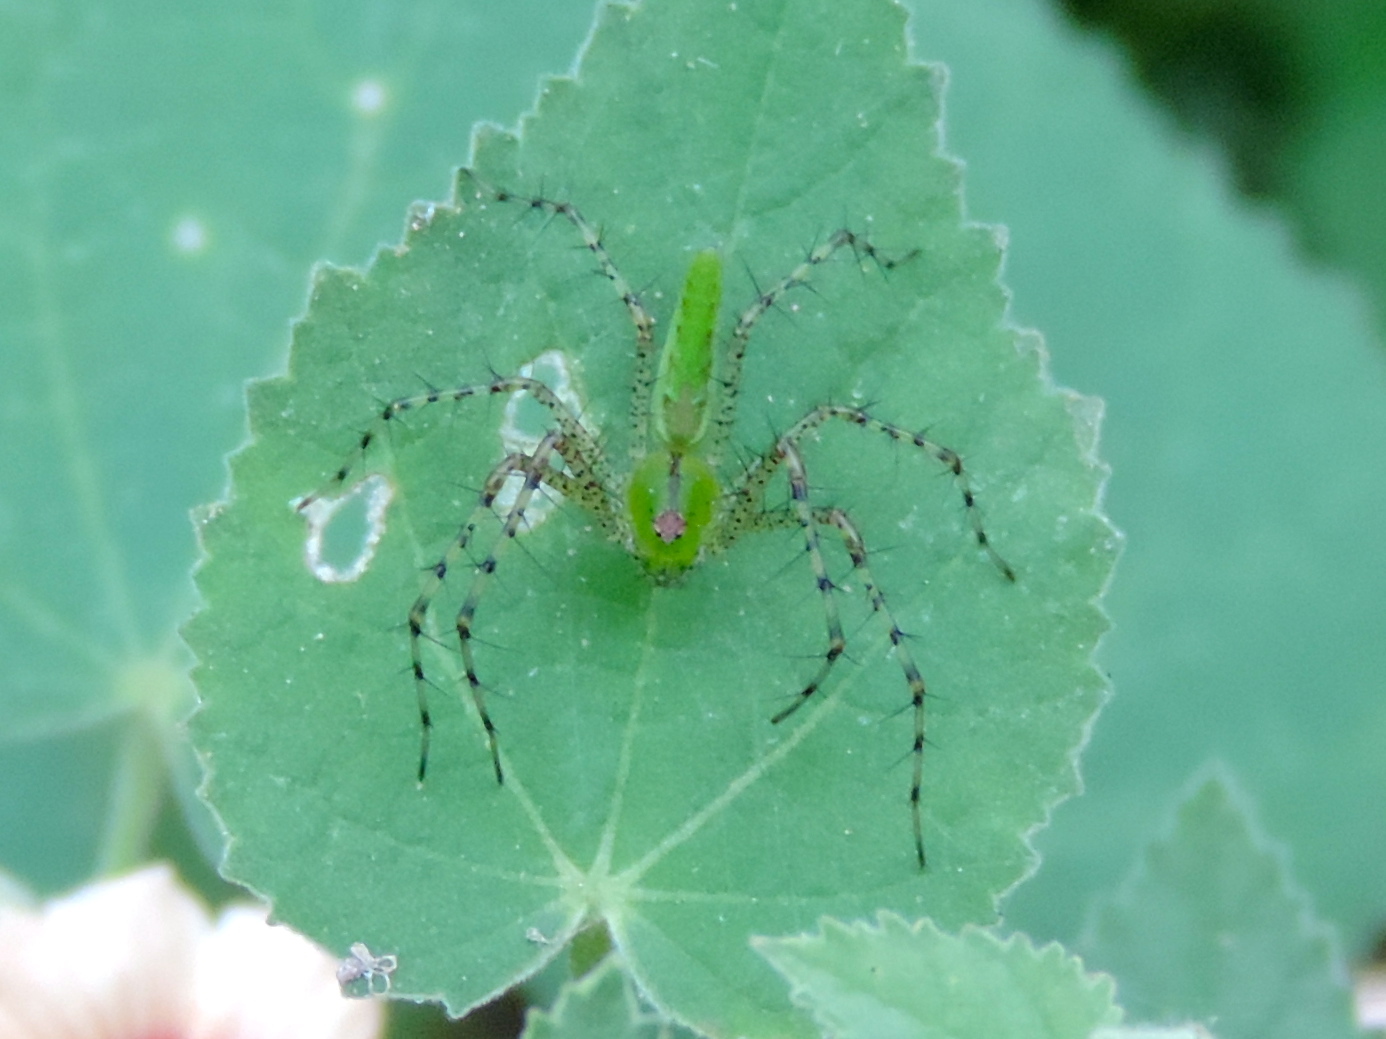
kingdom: Animalia
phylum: Arthropoda
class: Arachnida
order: Araneae
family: Oxyopidae
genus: Peucetia
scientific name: Peucetia
